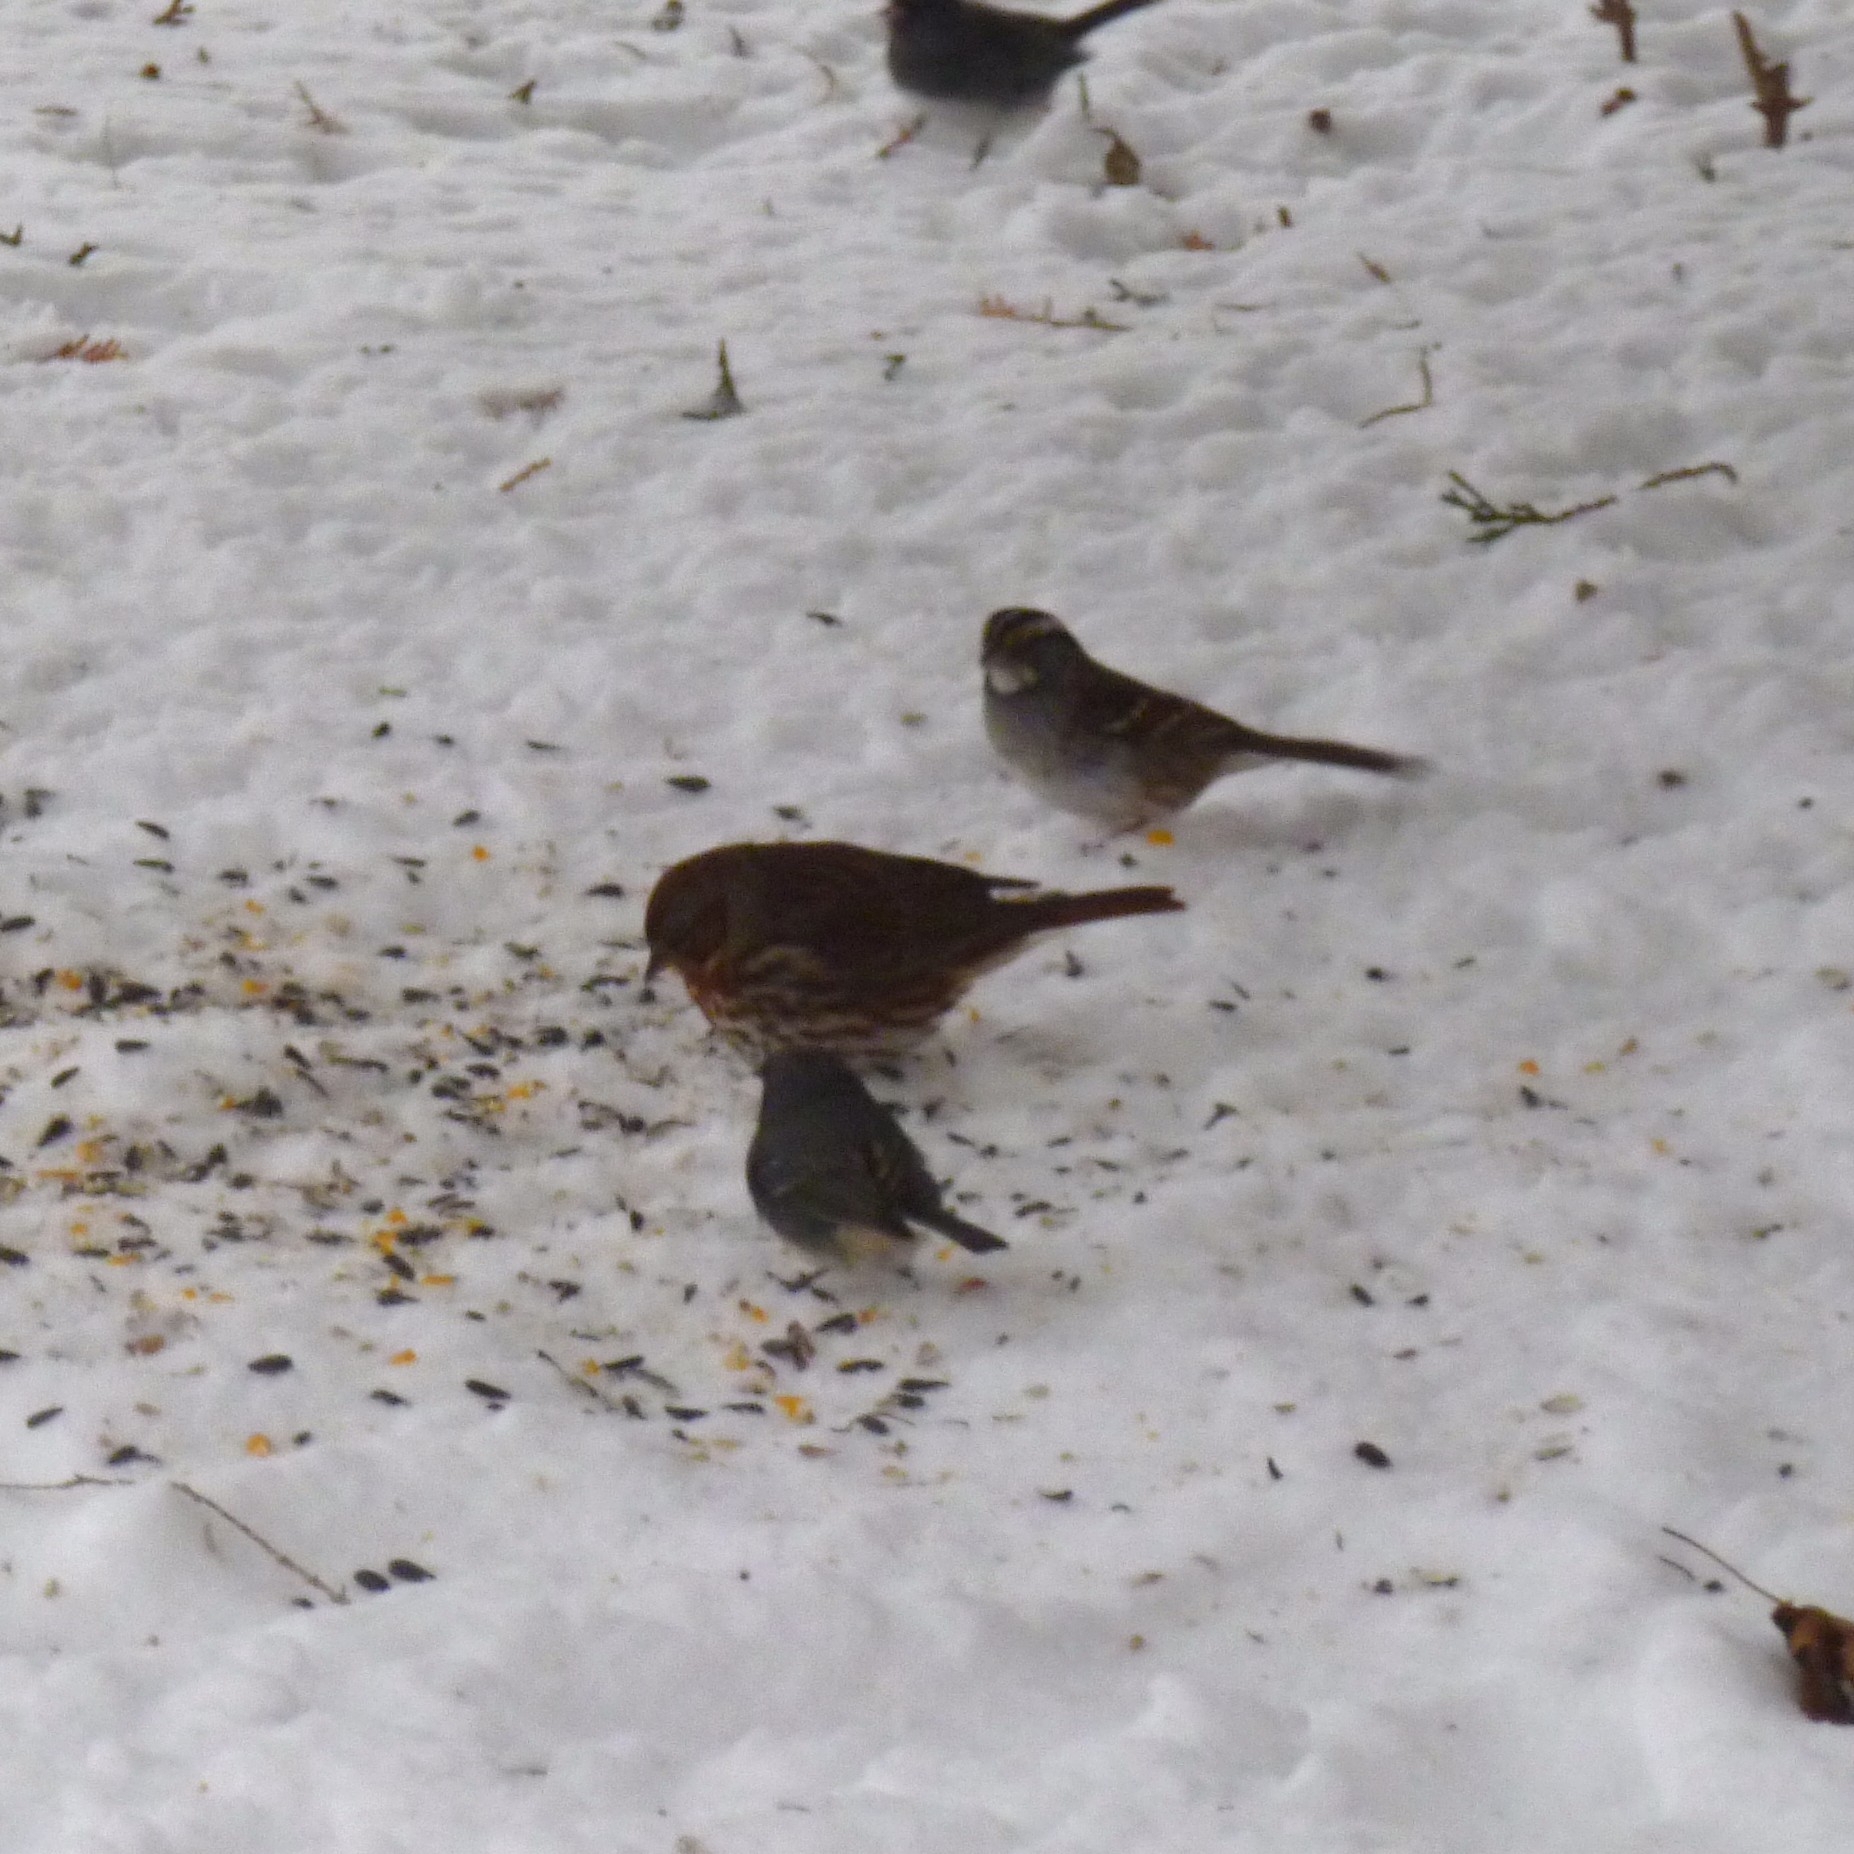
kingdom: Animalia
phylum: Chordata
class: Aves
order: Passeriformes
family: Passerellidae
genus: Passerella
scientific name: Passerella iliaca
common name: Fox sparrow
